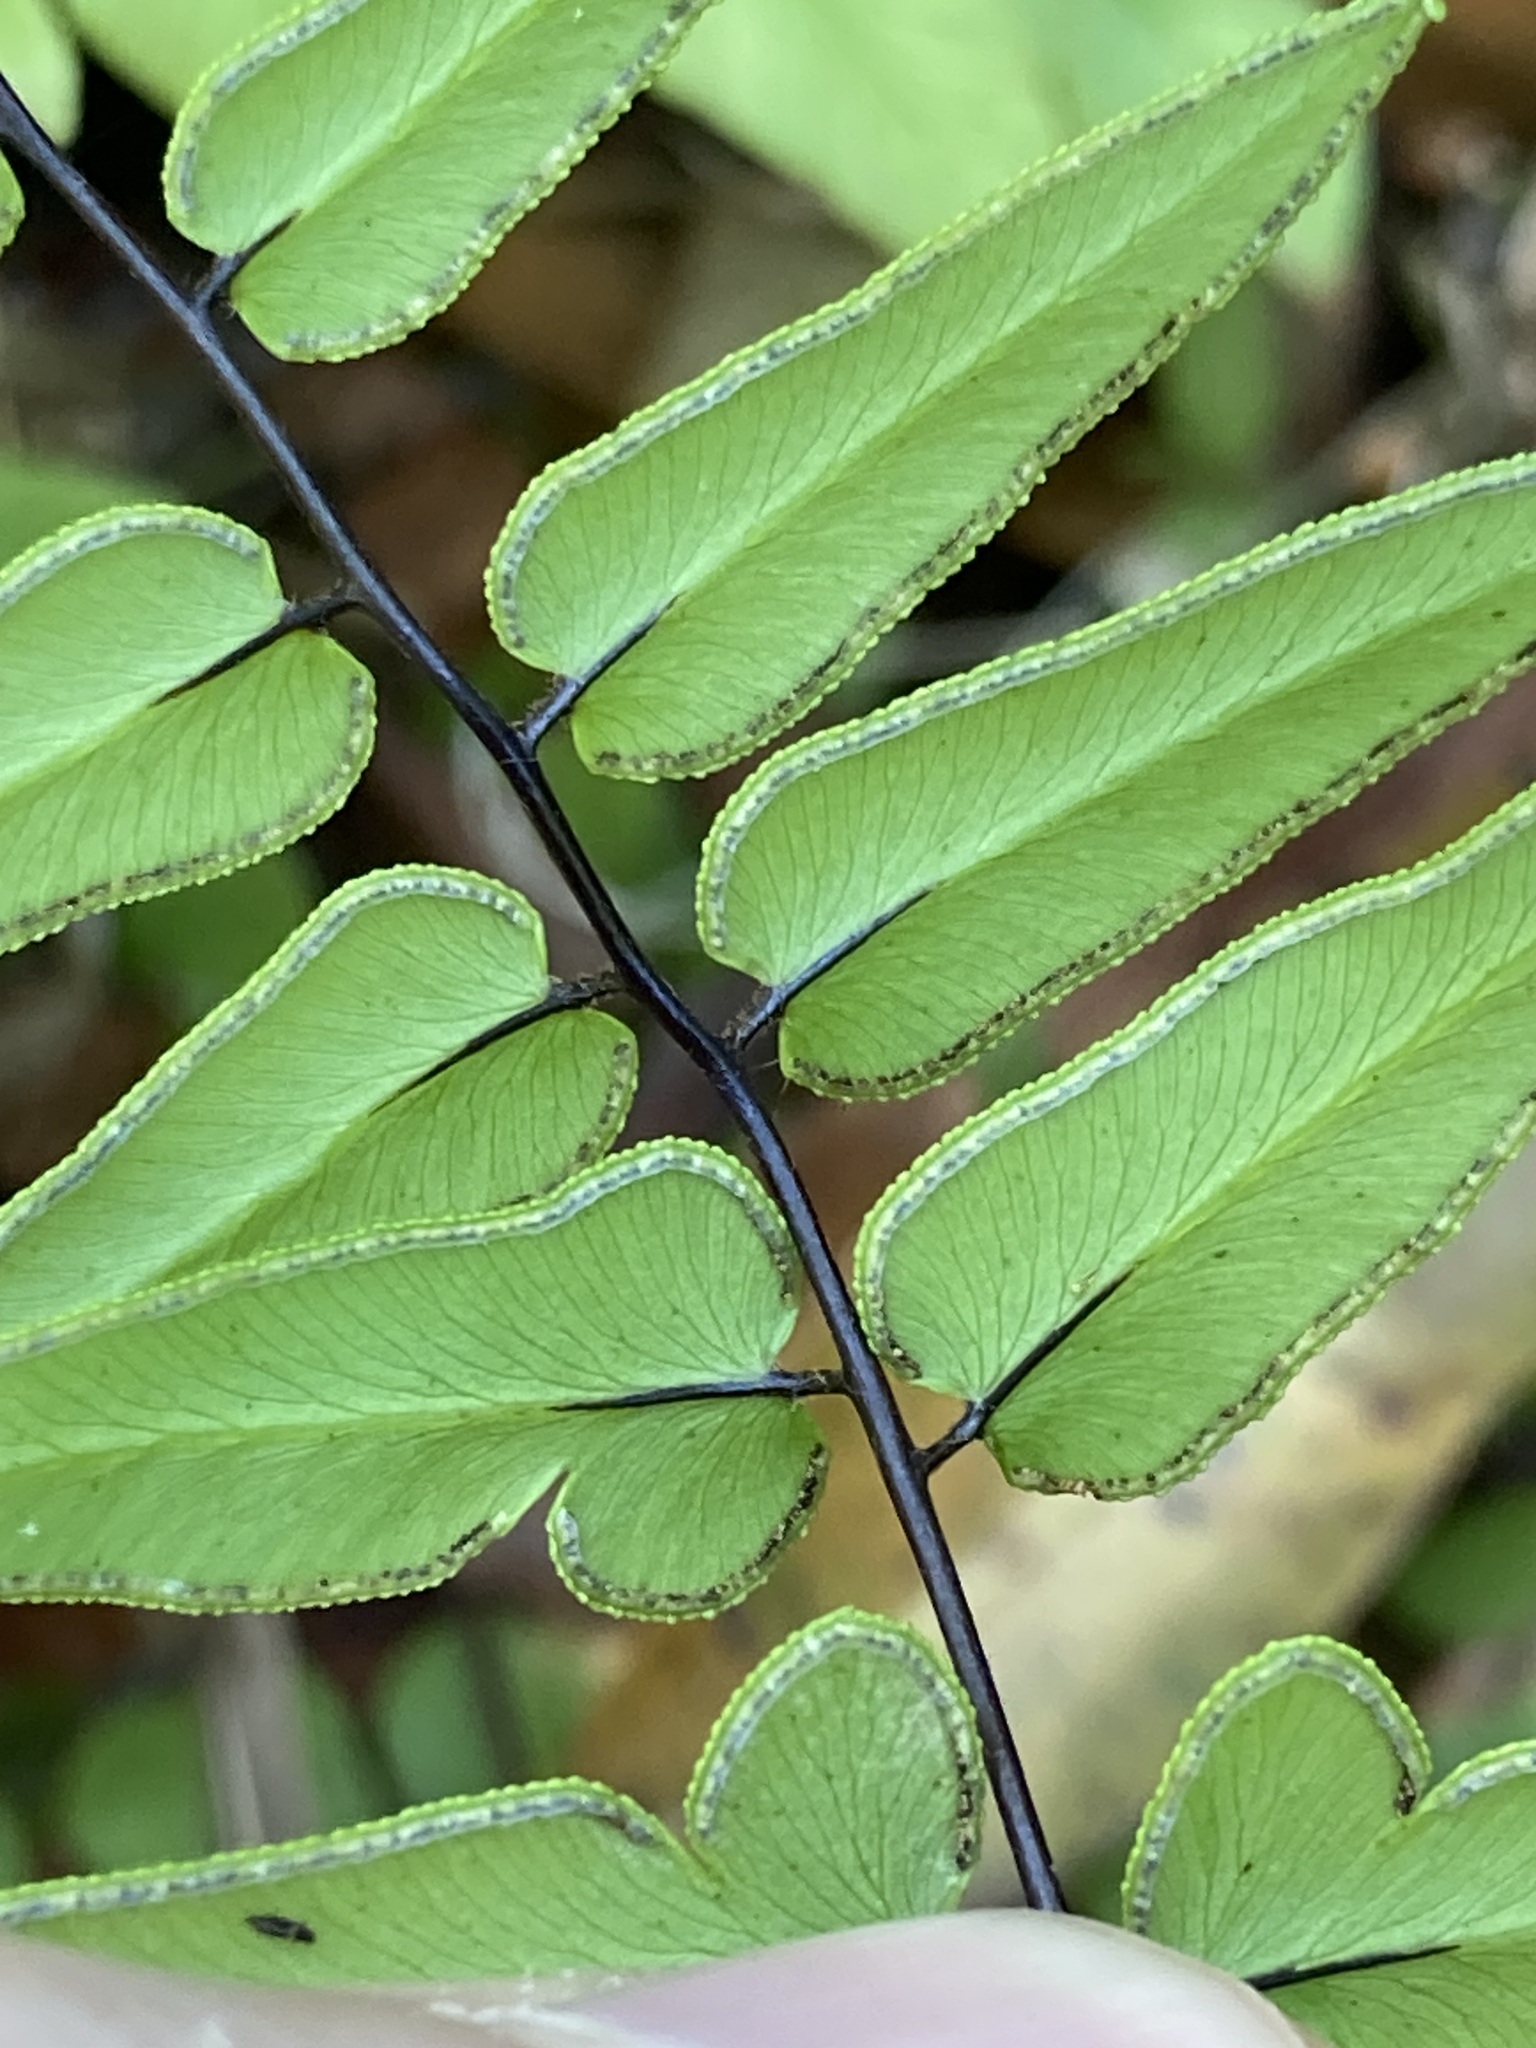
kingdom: Plantae
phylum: Tracheophyta
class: Polypodiopsida
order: Polypodiales
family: Pteridaceae
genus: Cheilanthes
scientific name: Cheilanthes viridis
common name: Green cliffbrake
